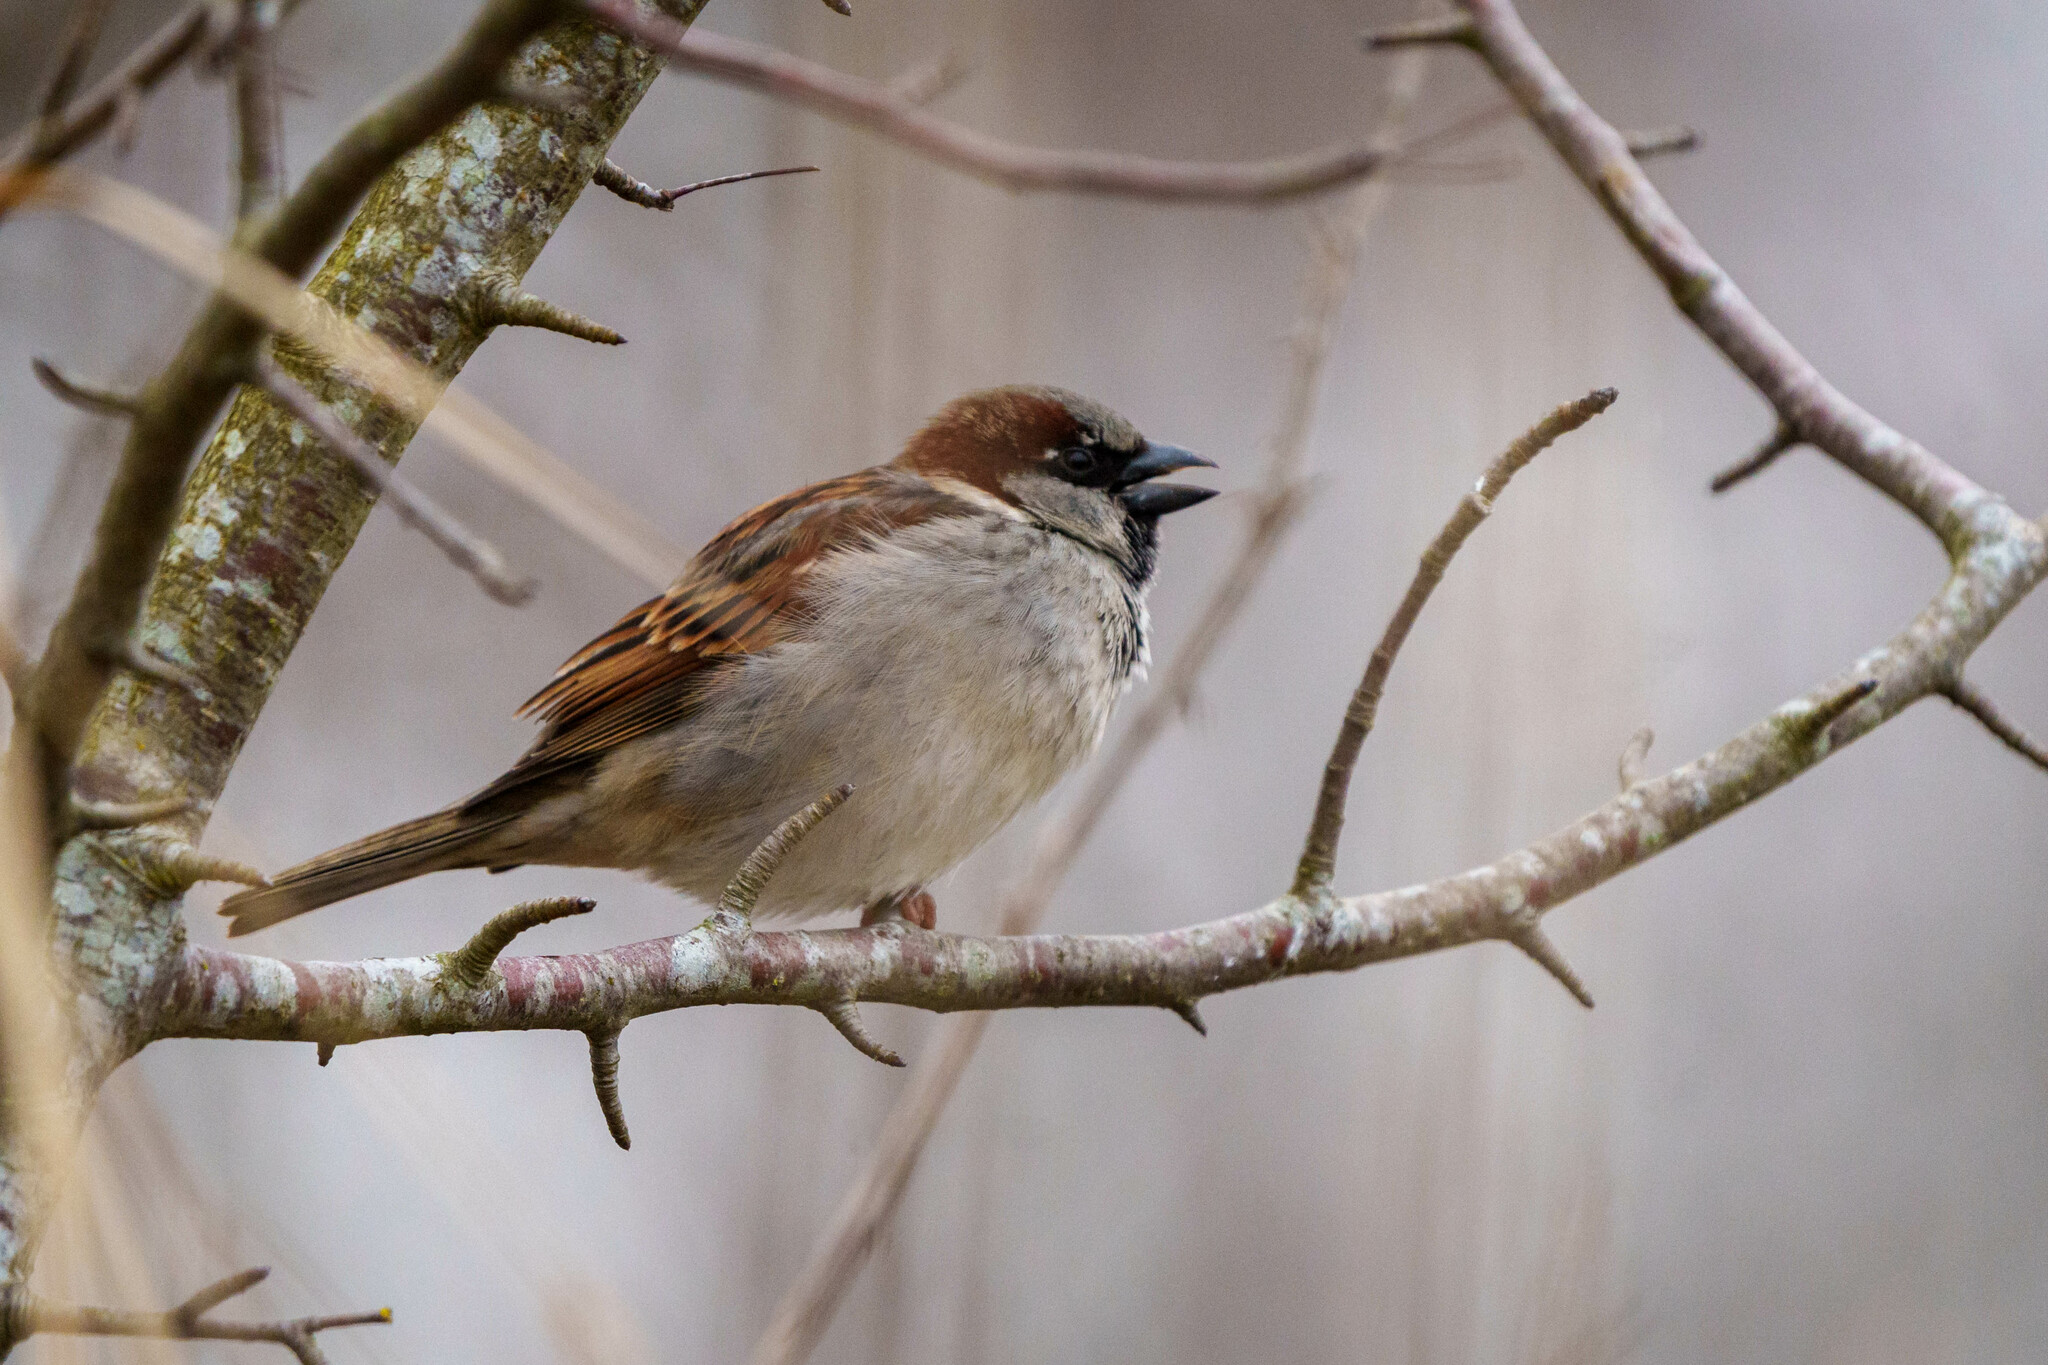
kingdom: Animalia
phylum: Chordata
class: Aves
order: Passeriformes
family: Passeridae
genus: Passer
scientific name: Passer domesticus
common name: House sparrow
